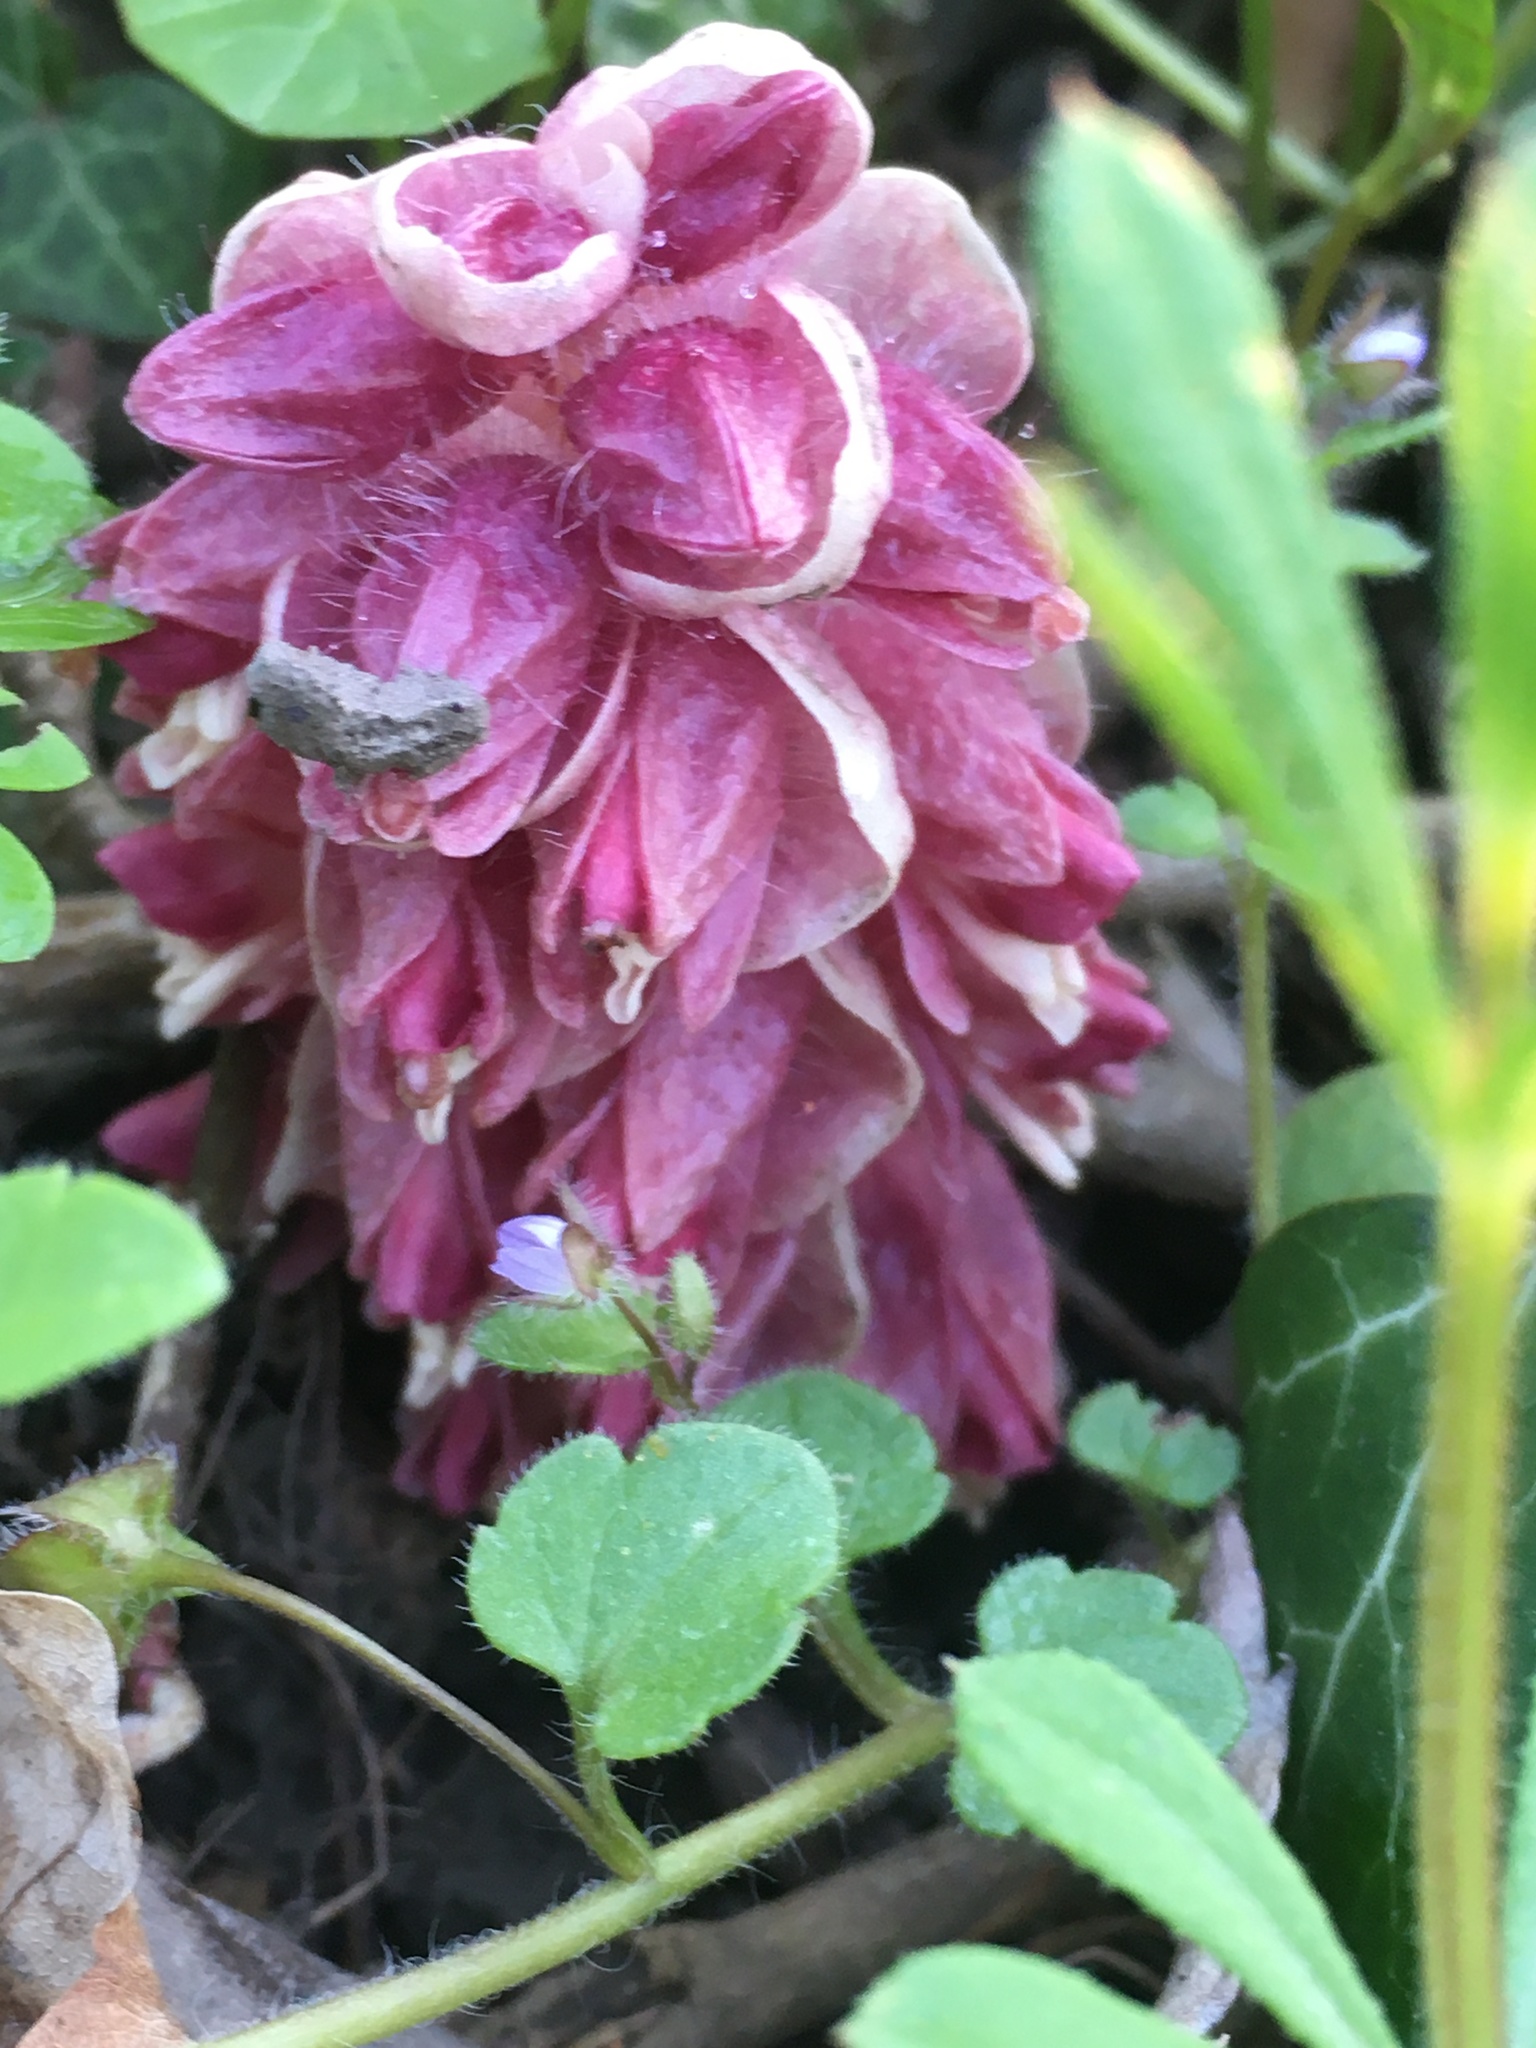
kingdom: Plantae
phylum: Tracheophyta
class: Magnoliopsida
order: Lamiales
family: Orobanchaceae
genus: Lathraea
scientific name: Lathraea squamaria
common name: Toothwort
